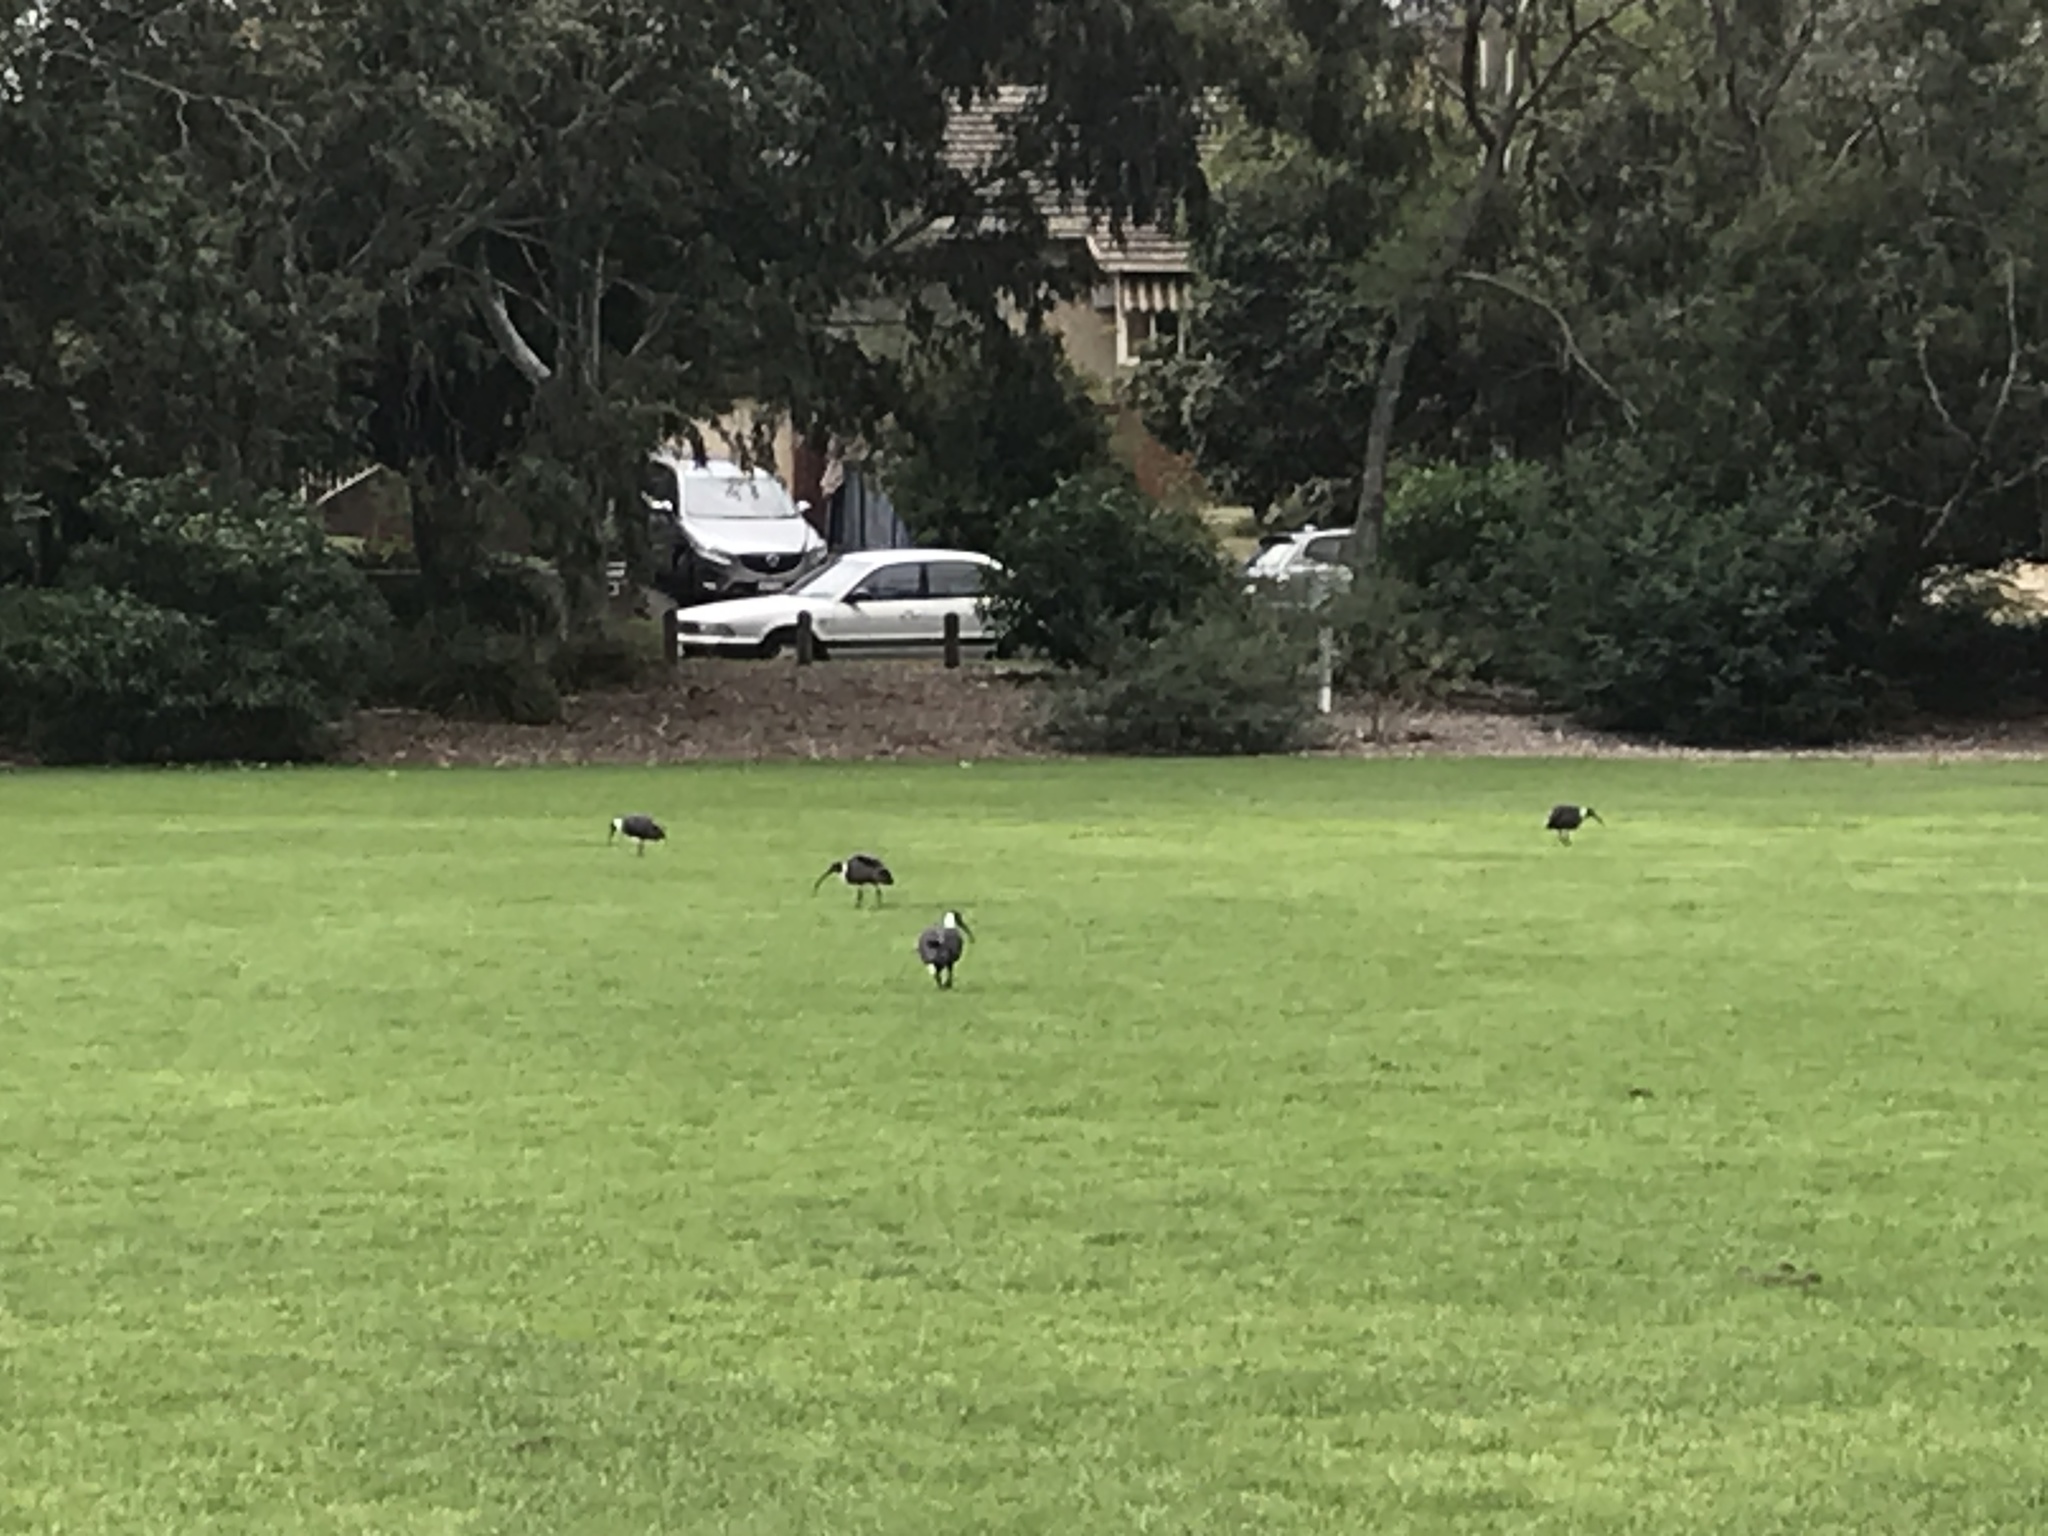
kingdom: Animalia
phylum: Chordata
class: Aves
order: Pelecaniformes
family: Threskiornithidae
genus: Threskiornis
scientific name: Threskiornis spinicollis
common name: Straw-necked ibis
